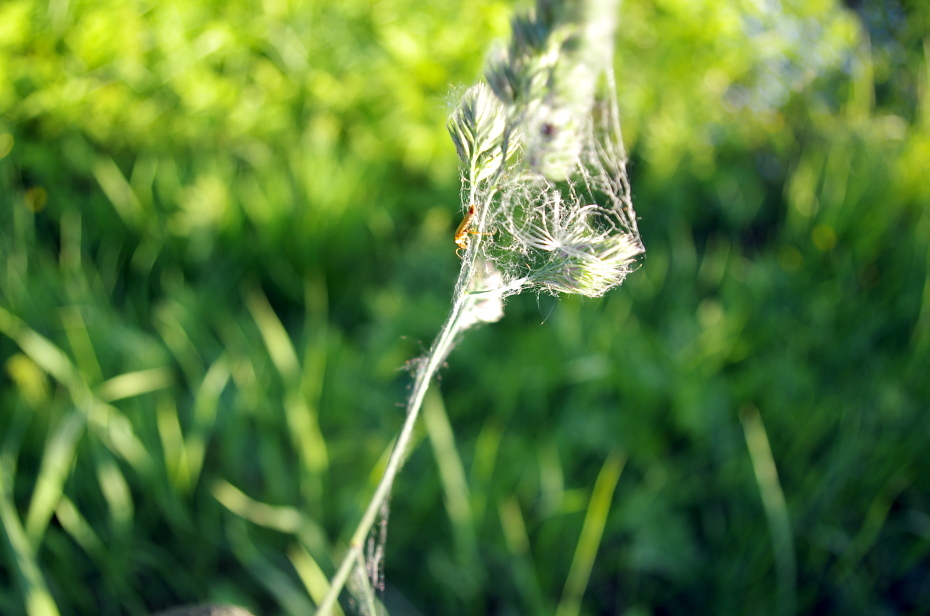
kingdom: Plantae
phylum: Tracheophyta
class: Liliopsida
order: Poales
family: Poaceae
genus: Dactylis
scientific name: Dactylis glomerata
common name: Orchardgrass
